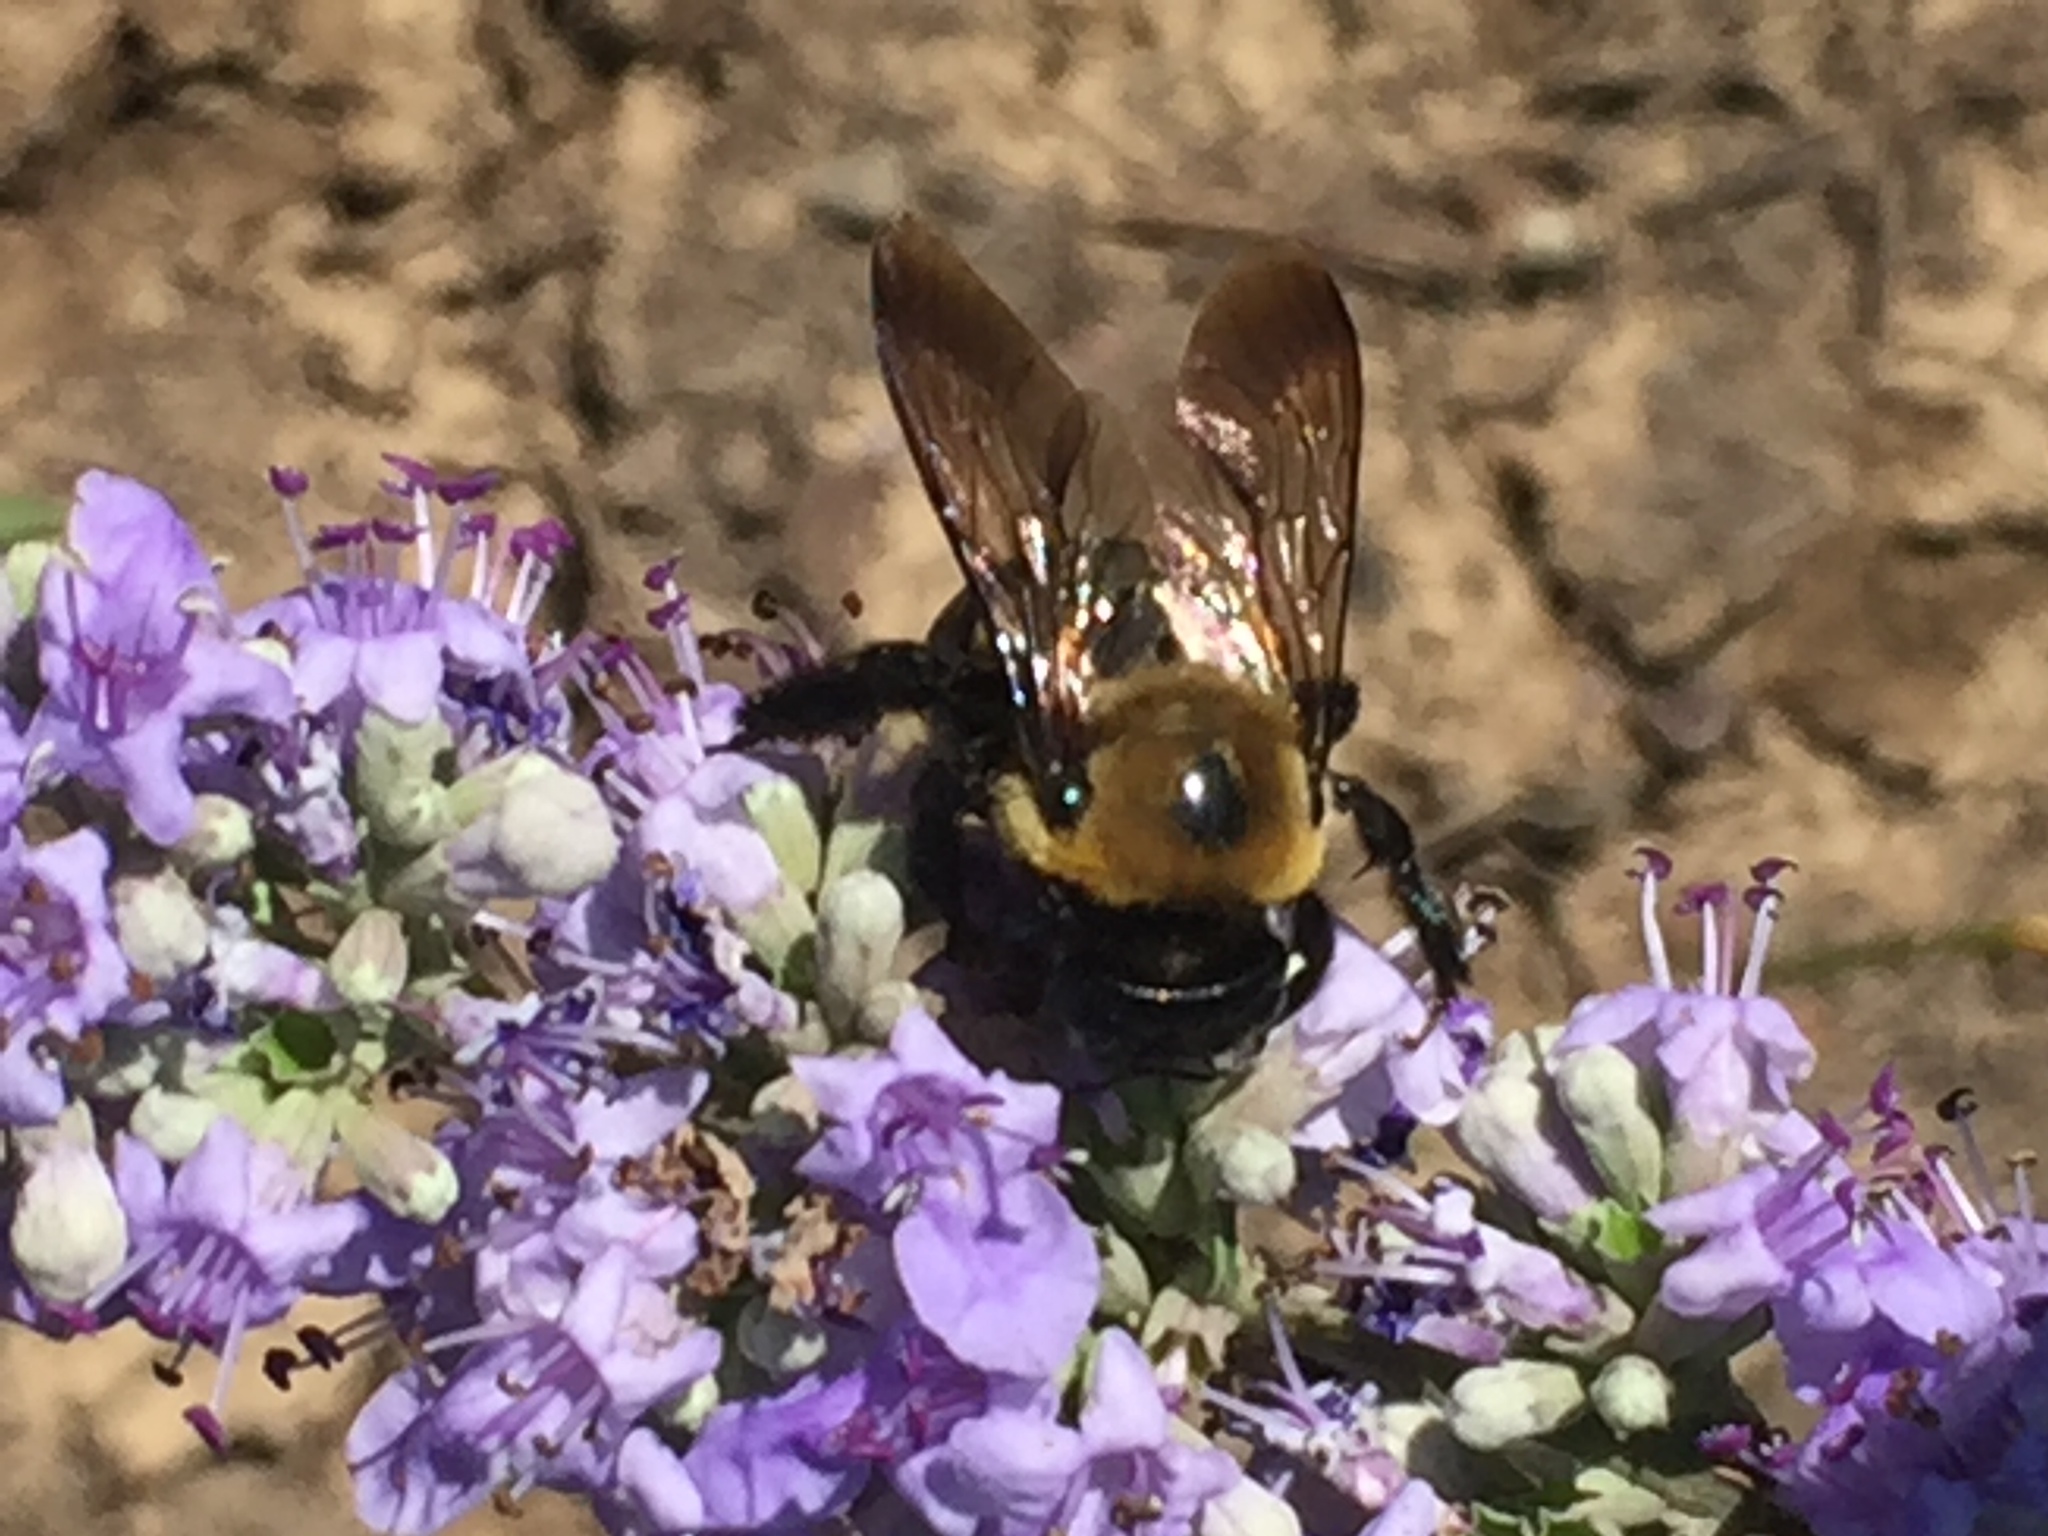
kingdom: Animalia
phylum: Arthropoda
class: Insecta
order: Hymenoptera
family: Apidae
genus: Xylocopa
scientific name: Xylocopa virginica
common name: Carpenter bee
